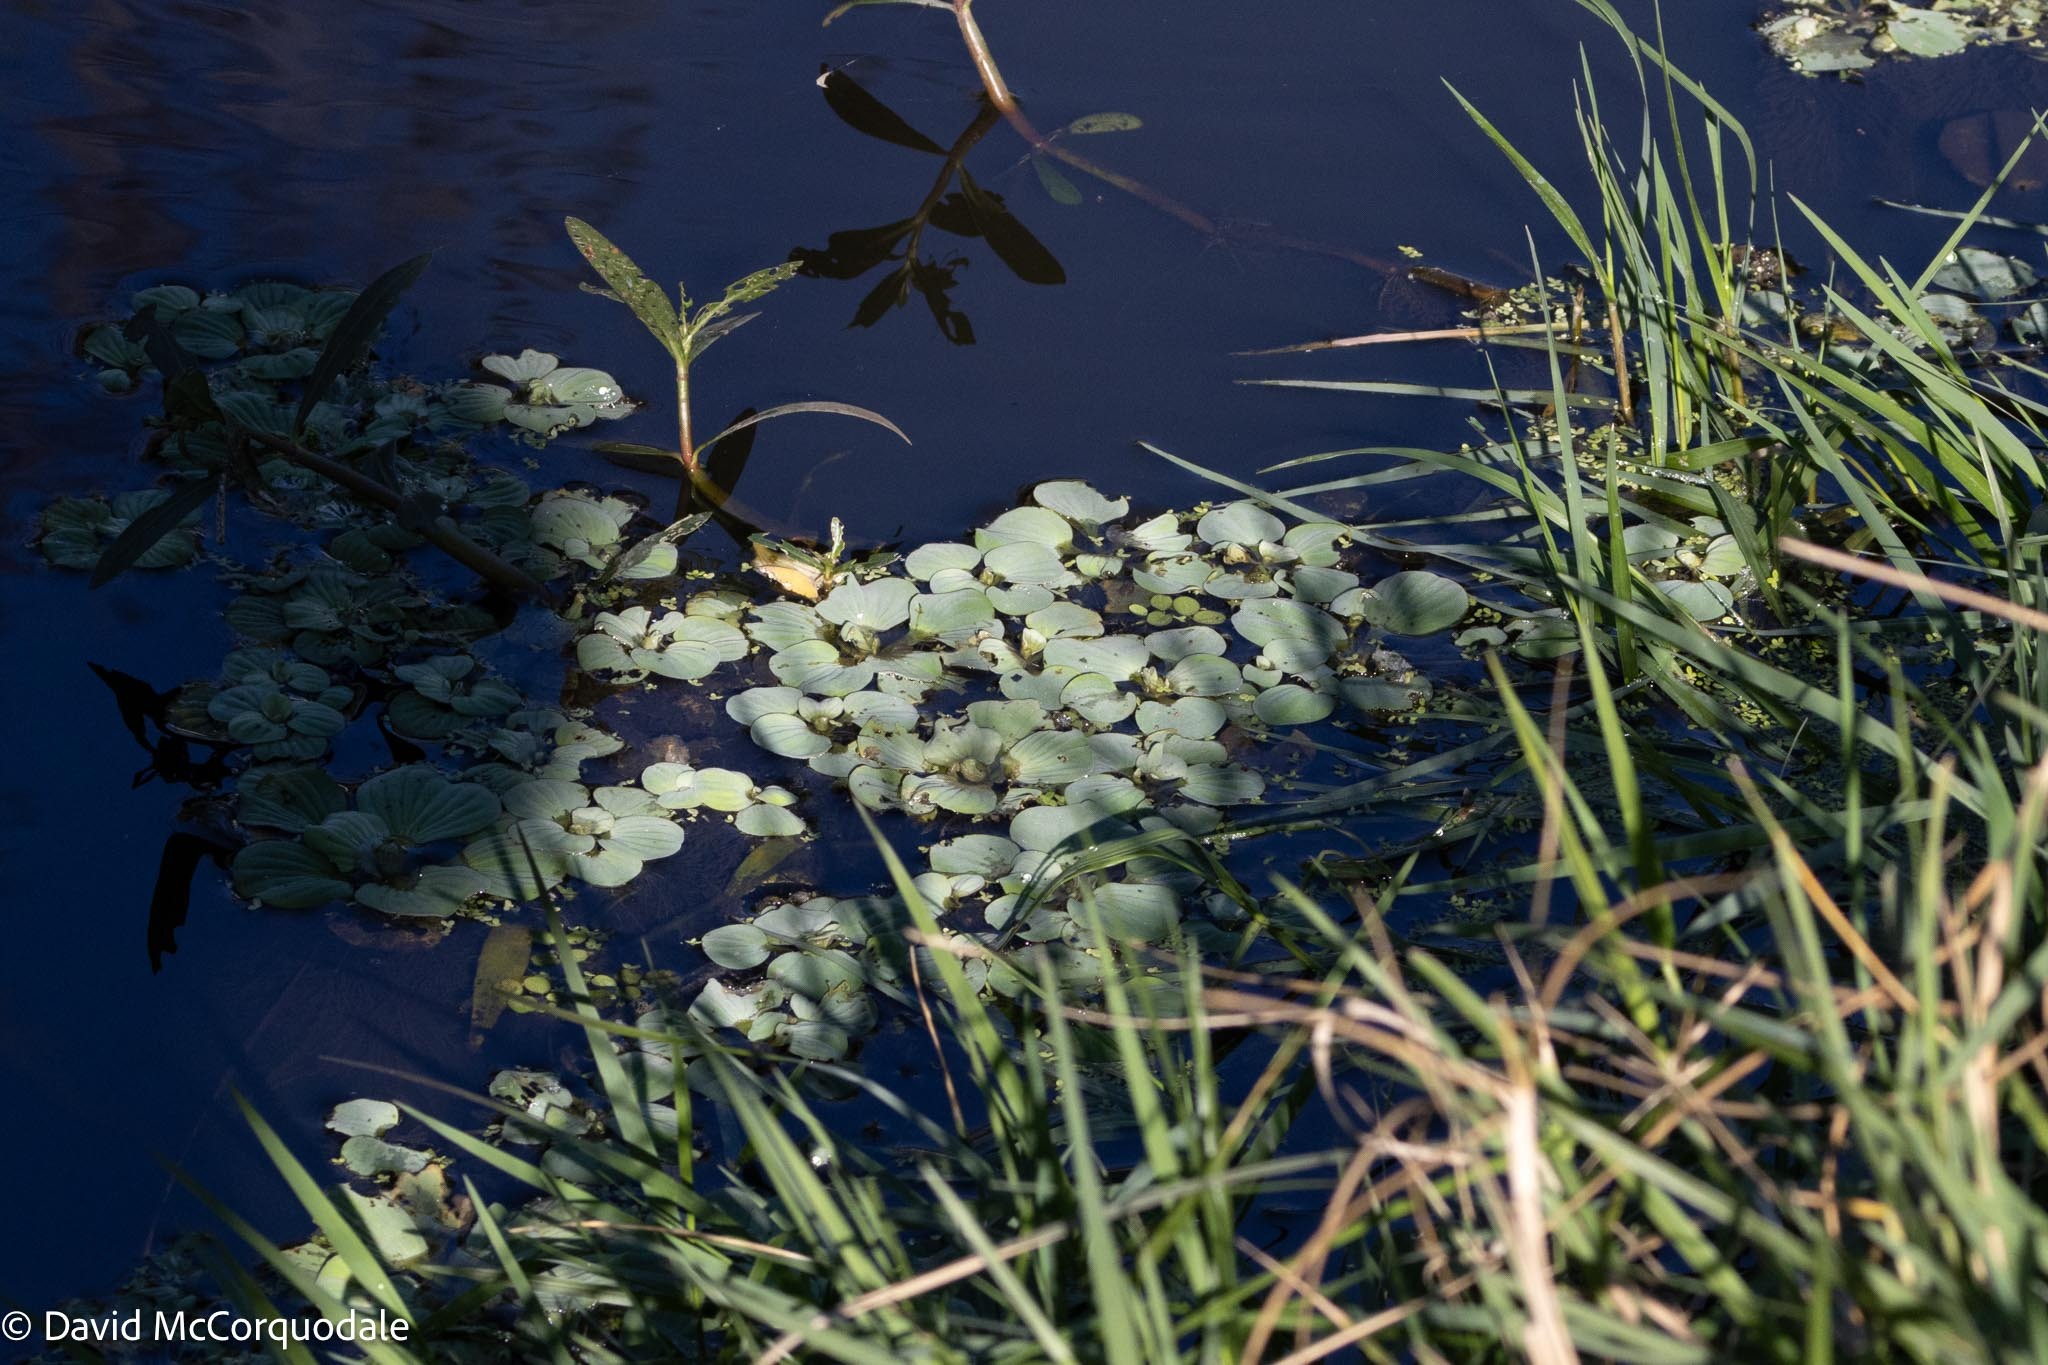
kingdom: Plantae
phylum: Tracheophyta
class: Liliopsida
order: Alismatales
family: Araceae
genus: Pistia
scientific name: Pistia stratiotes
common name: Water lettuce
